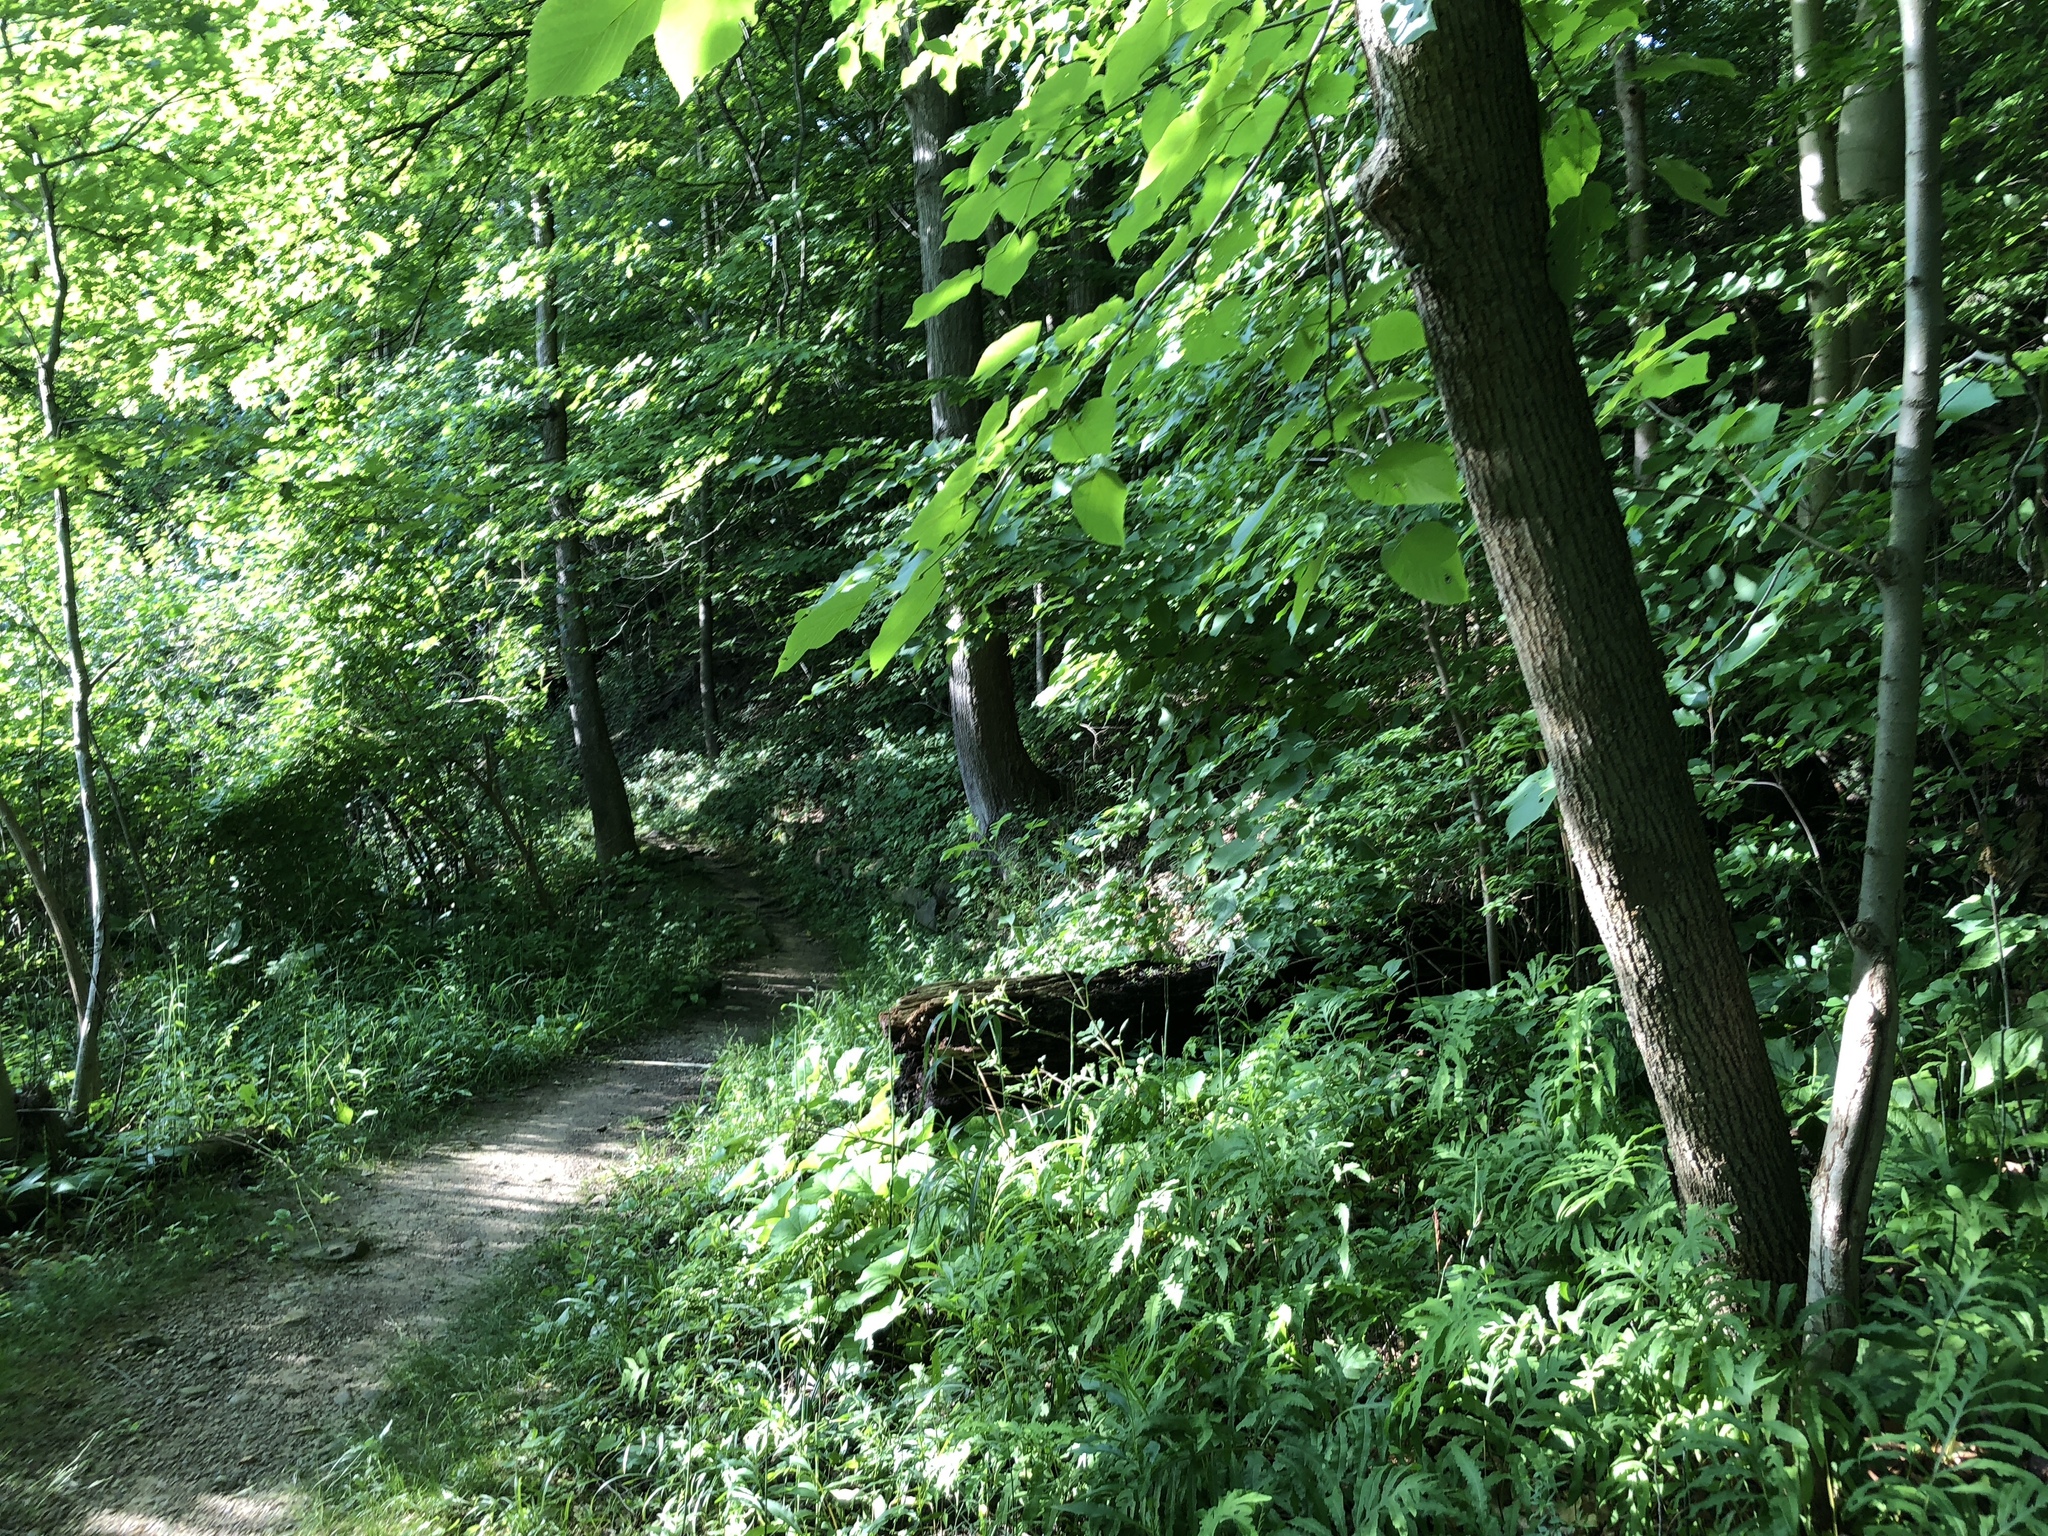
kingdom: Plantae
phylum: Tracheophyta
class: Magnoliopsida
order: Malvales
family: Malvaceae
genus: Tilia
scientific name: Tilia americana
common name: Basswood
